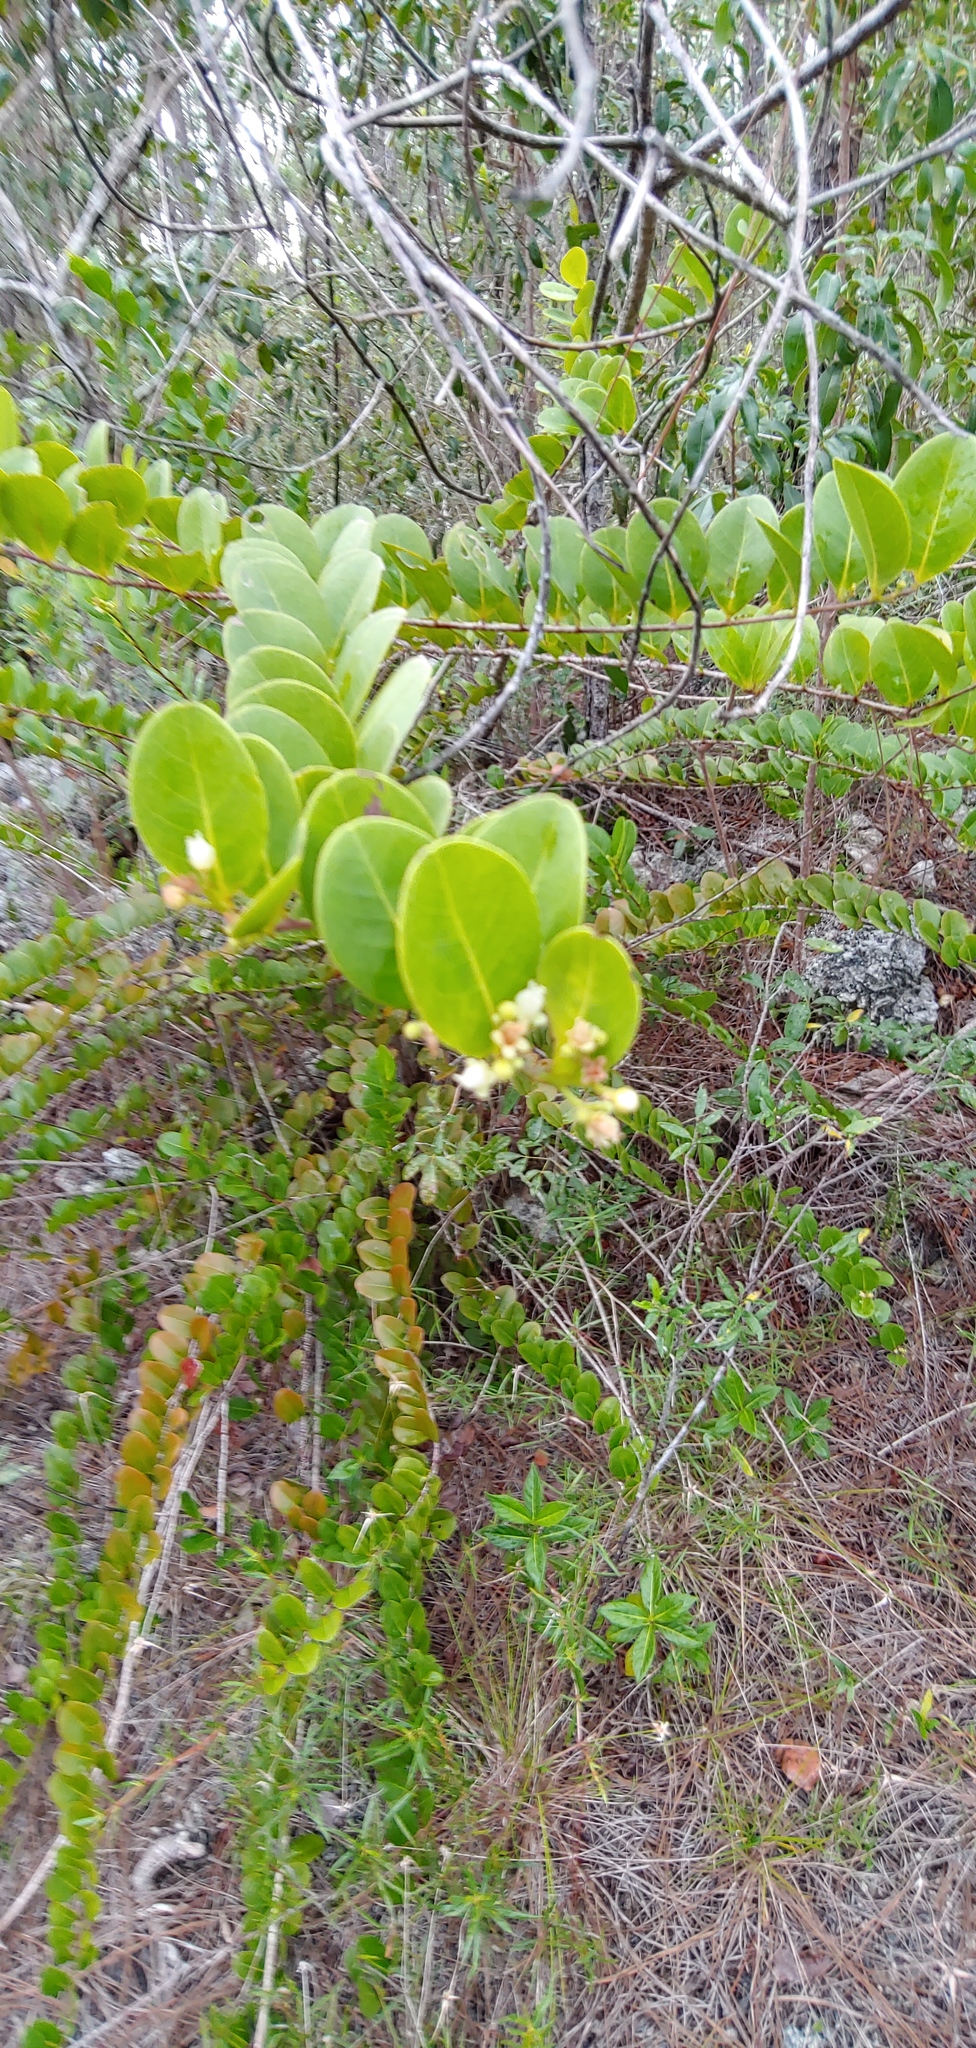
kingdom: Plantae
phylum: Tracheophyta
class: Magnoliopsida
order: Malpighiales
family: Chrysobalanaceae
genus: Chrysobalanus
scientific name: Chrysobalanus icaco
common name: Coco plum
